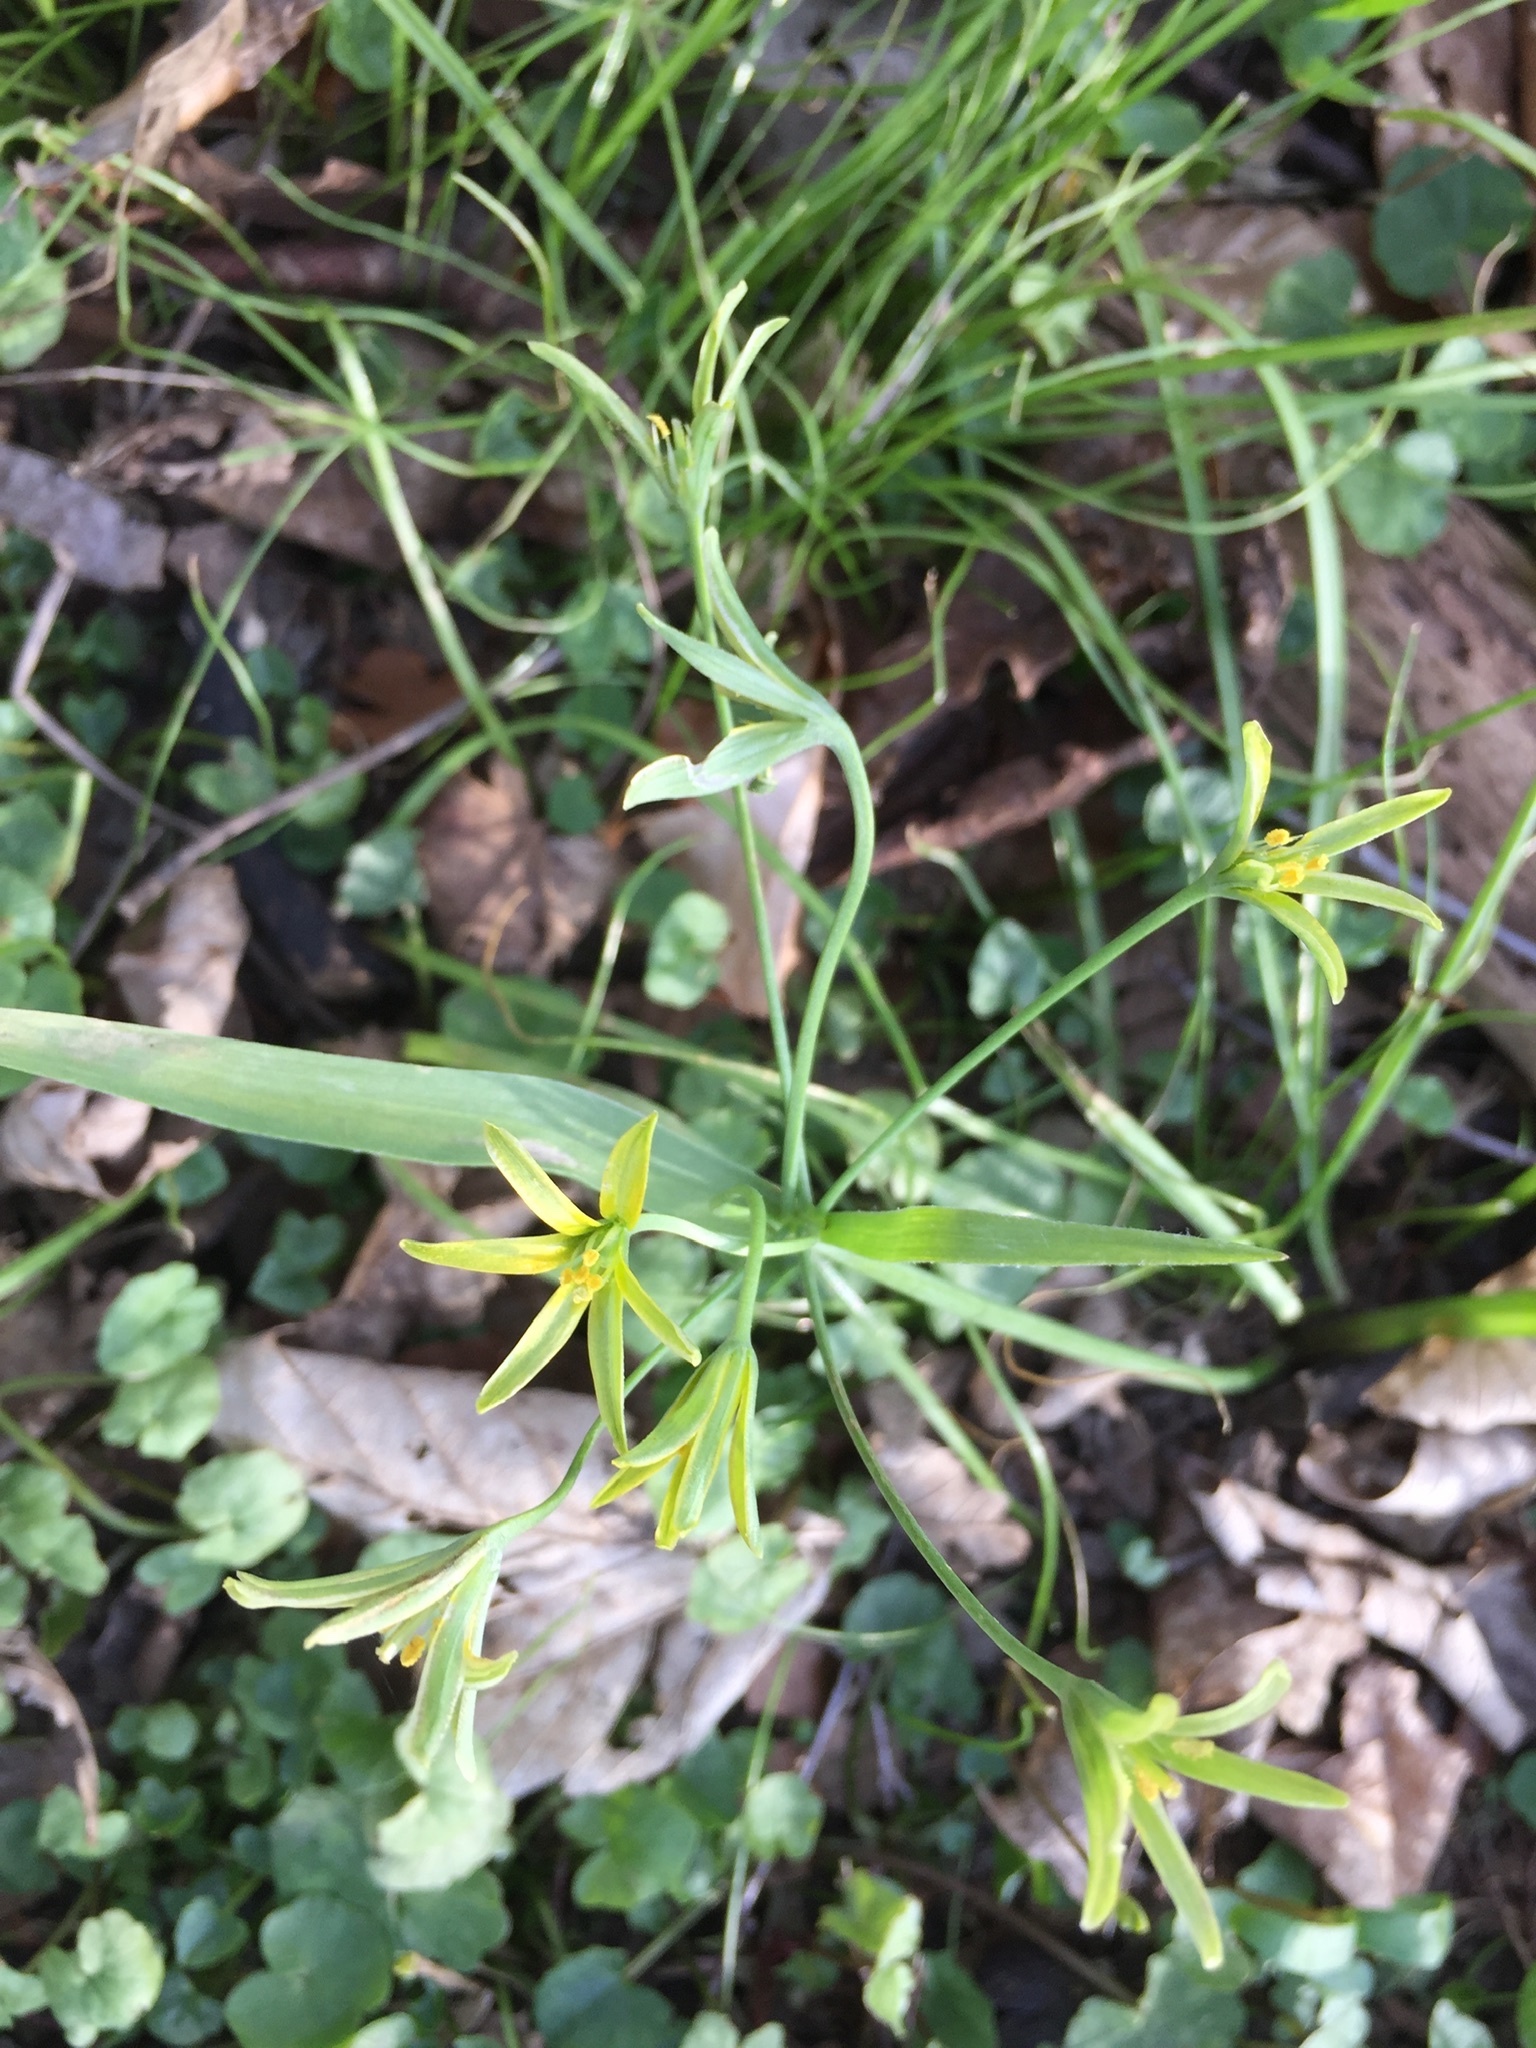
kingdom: Plantae
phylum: Tracheophyta
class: Liliopsida
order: Liliales
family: Liliaceae
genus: Gagea
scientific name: Gagea lutea
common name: Yellow star-of-bethlehem
